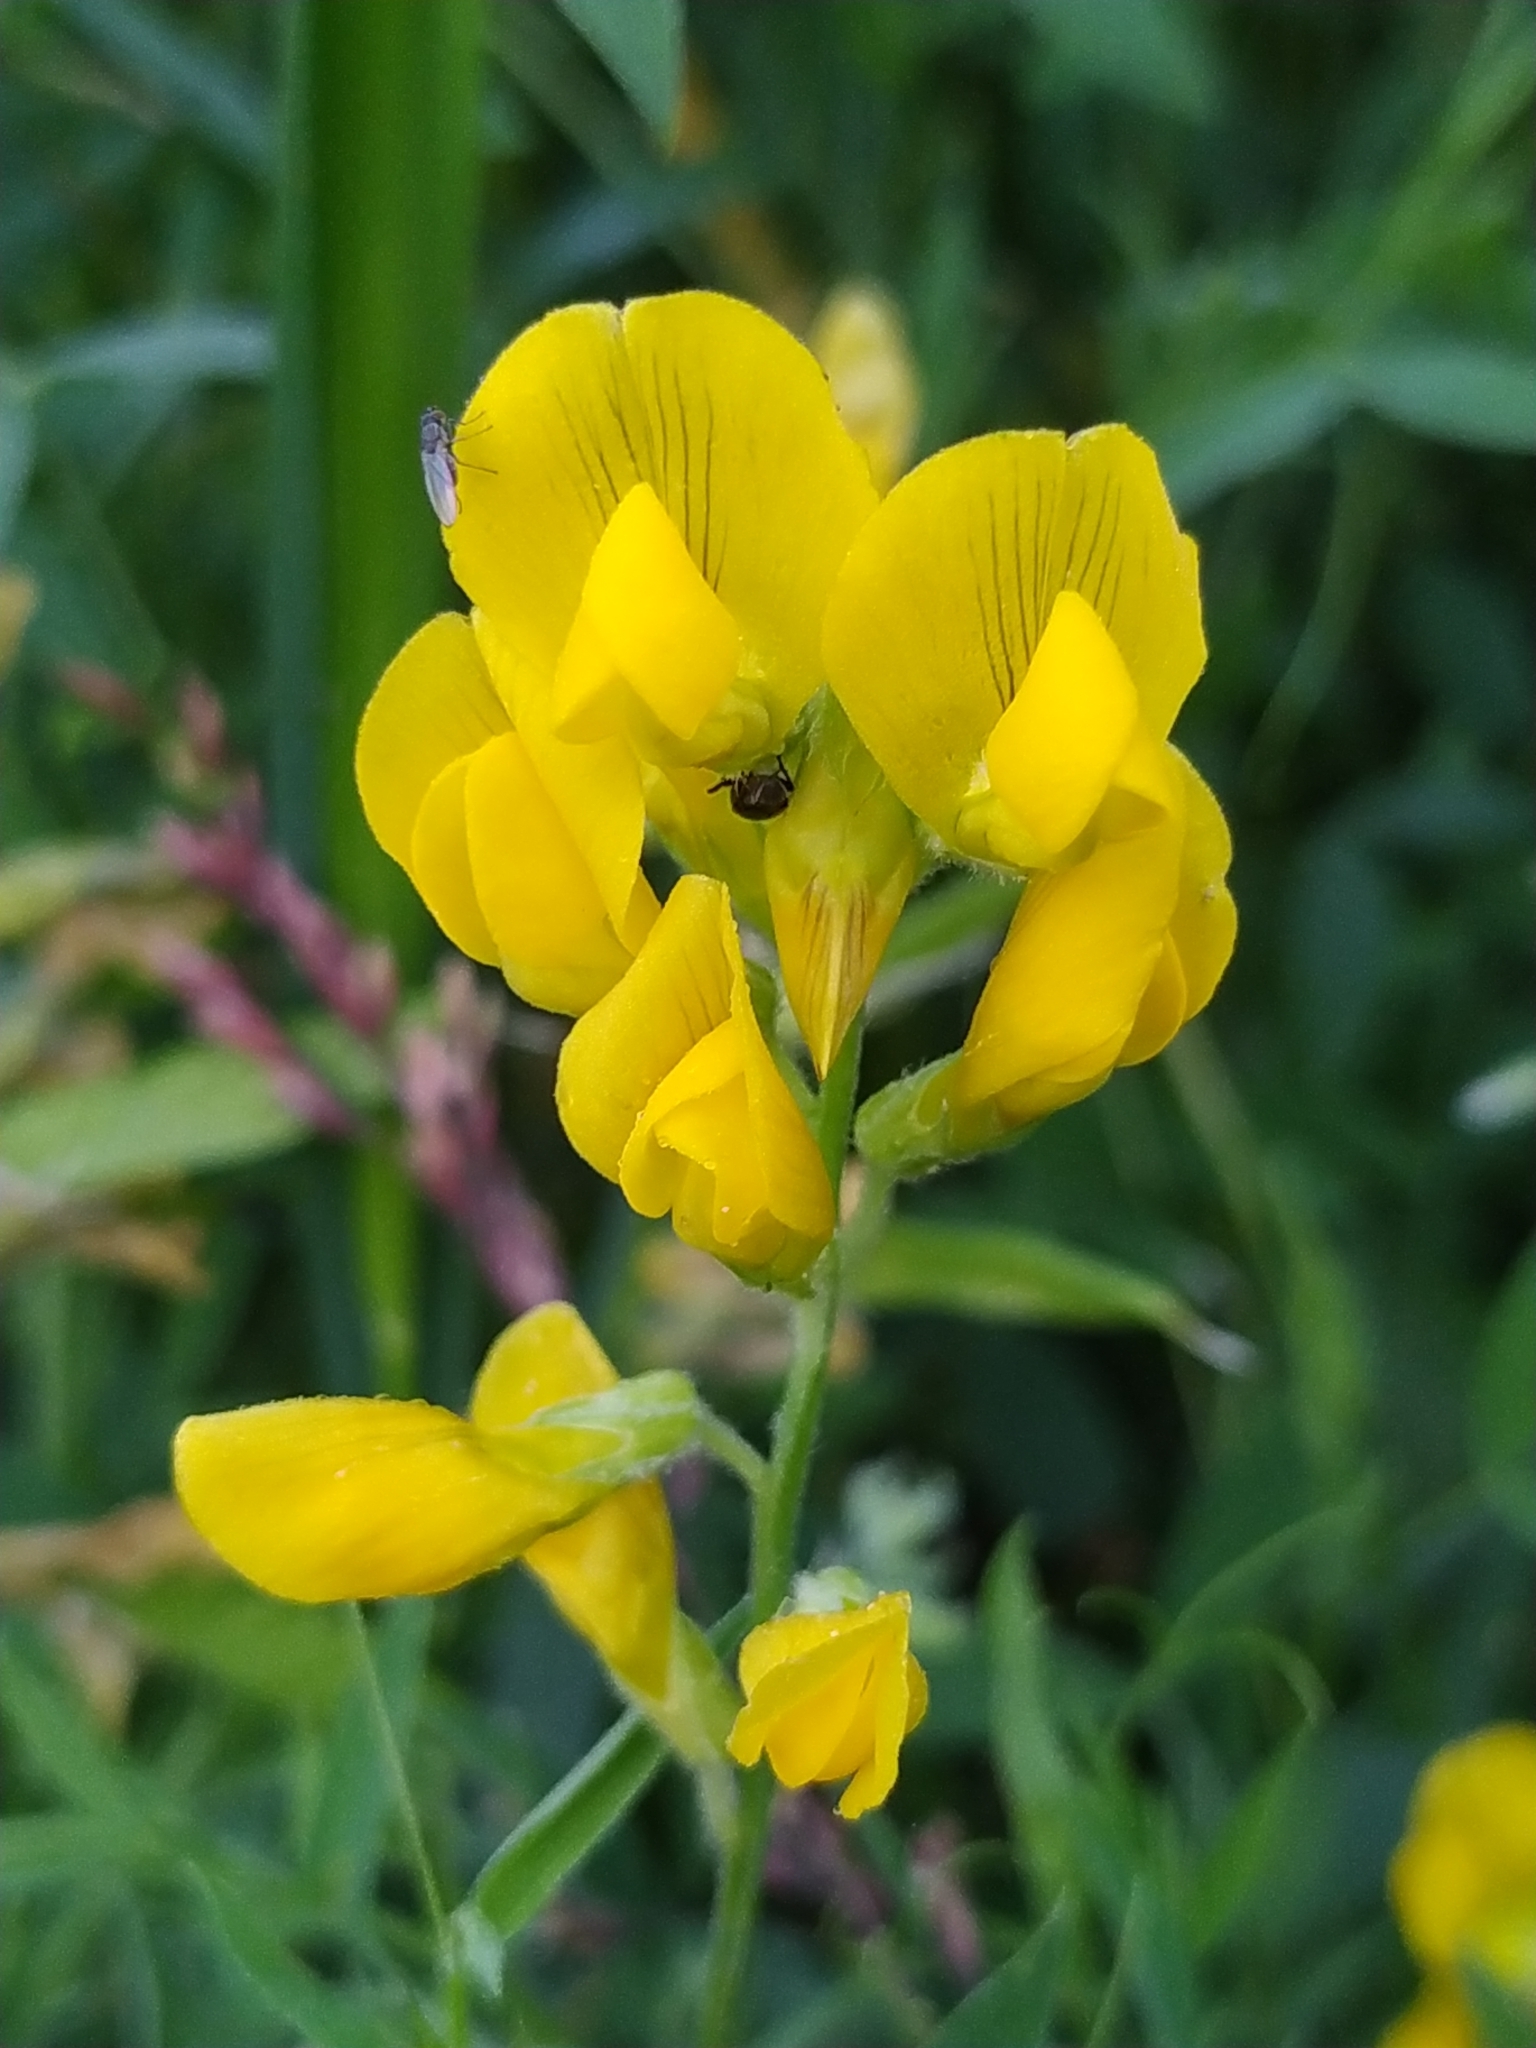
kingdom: Plantae
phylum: Tracheophyta
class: Magnoliopsida
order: Fabales
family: Fabaceae
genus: Lathyrus
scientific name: Lathyrus pratensis
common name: Meadow vetchling
